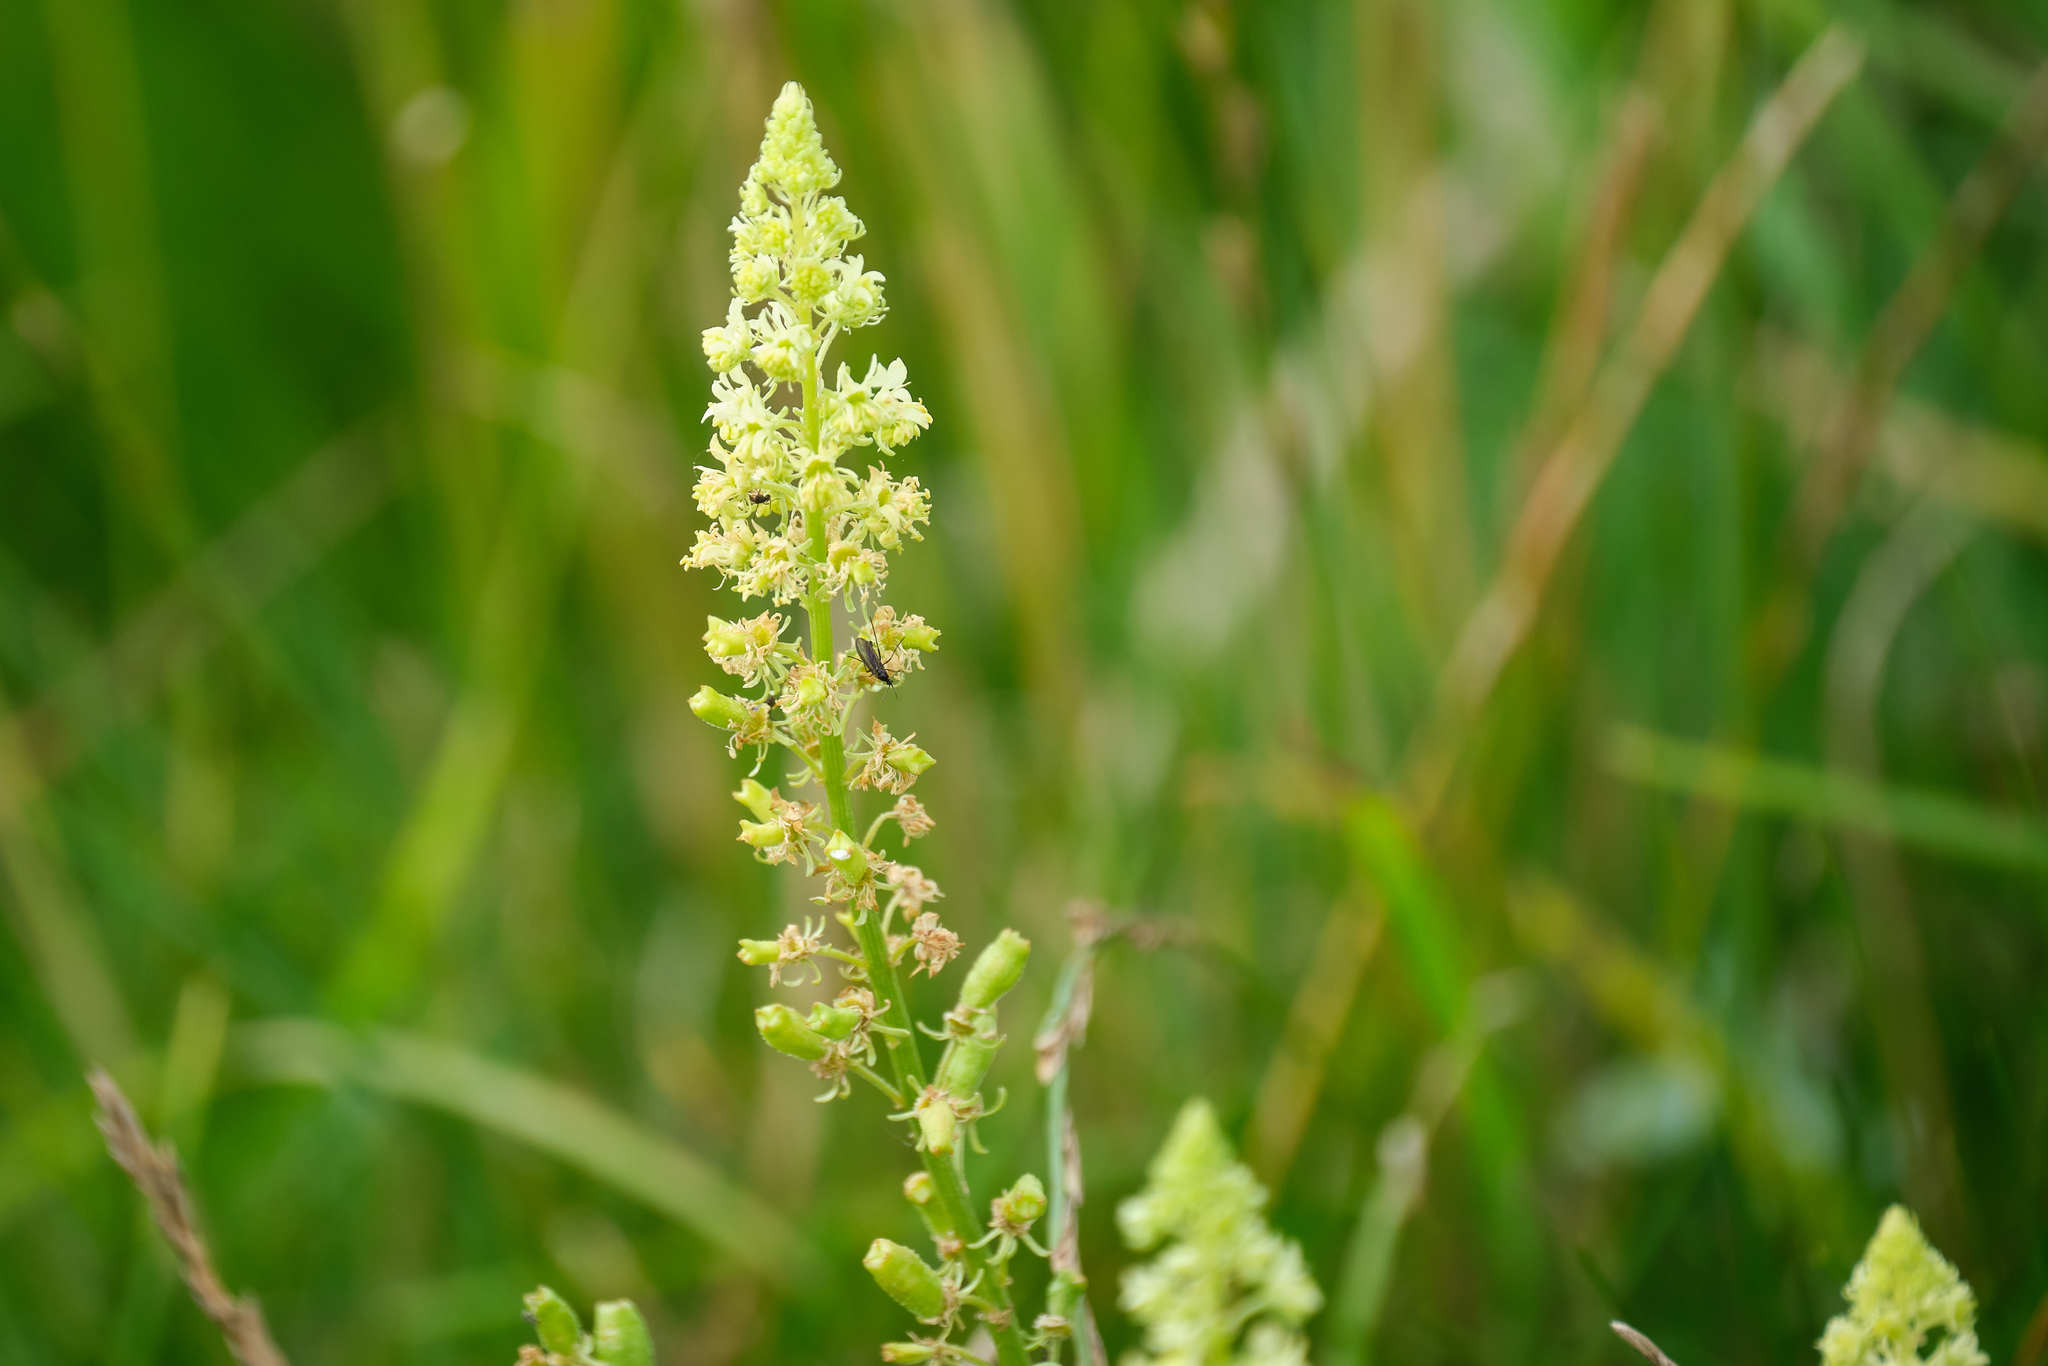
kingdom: Plantae
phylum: Tracheophyta
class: Magnoliopsida
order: Brassicales
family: Resedaceae
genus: Reseda
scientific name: Reseda lutea
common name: Wild mignonette
